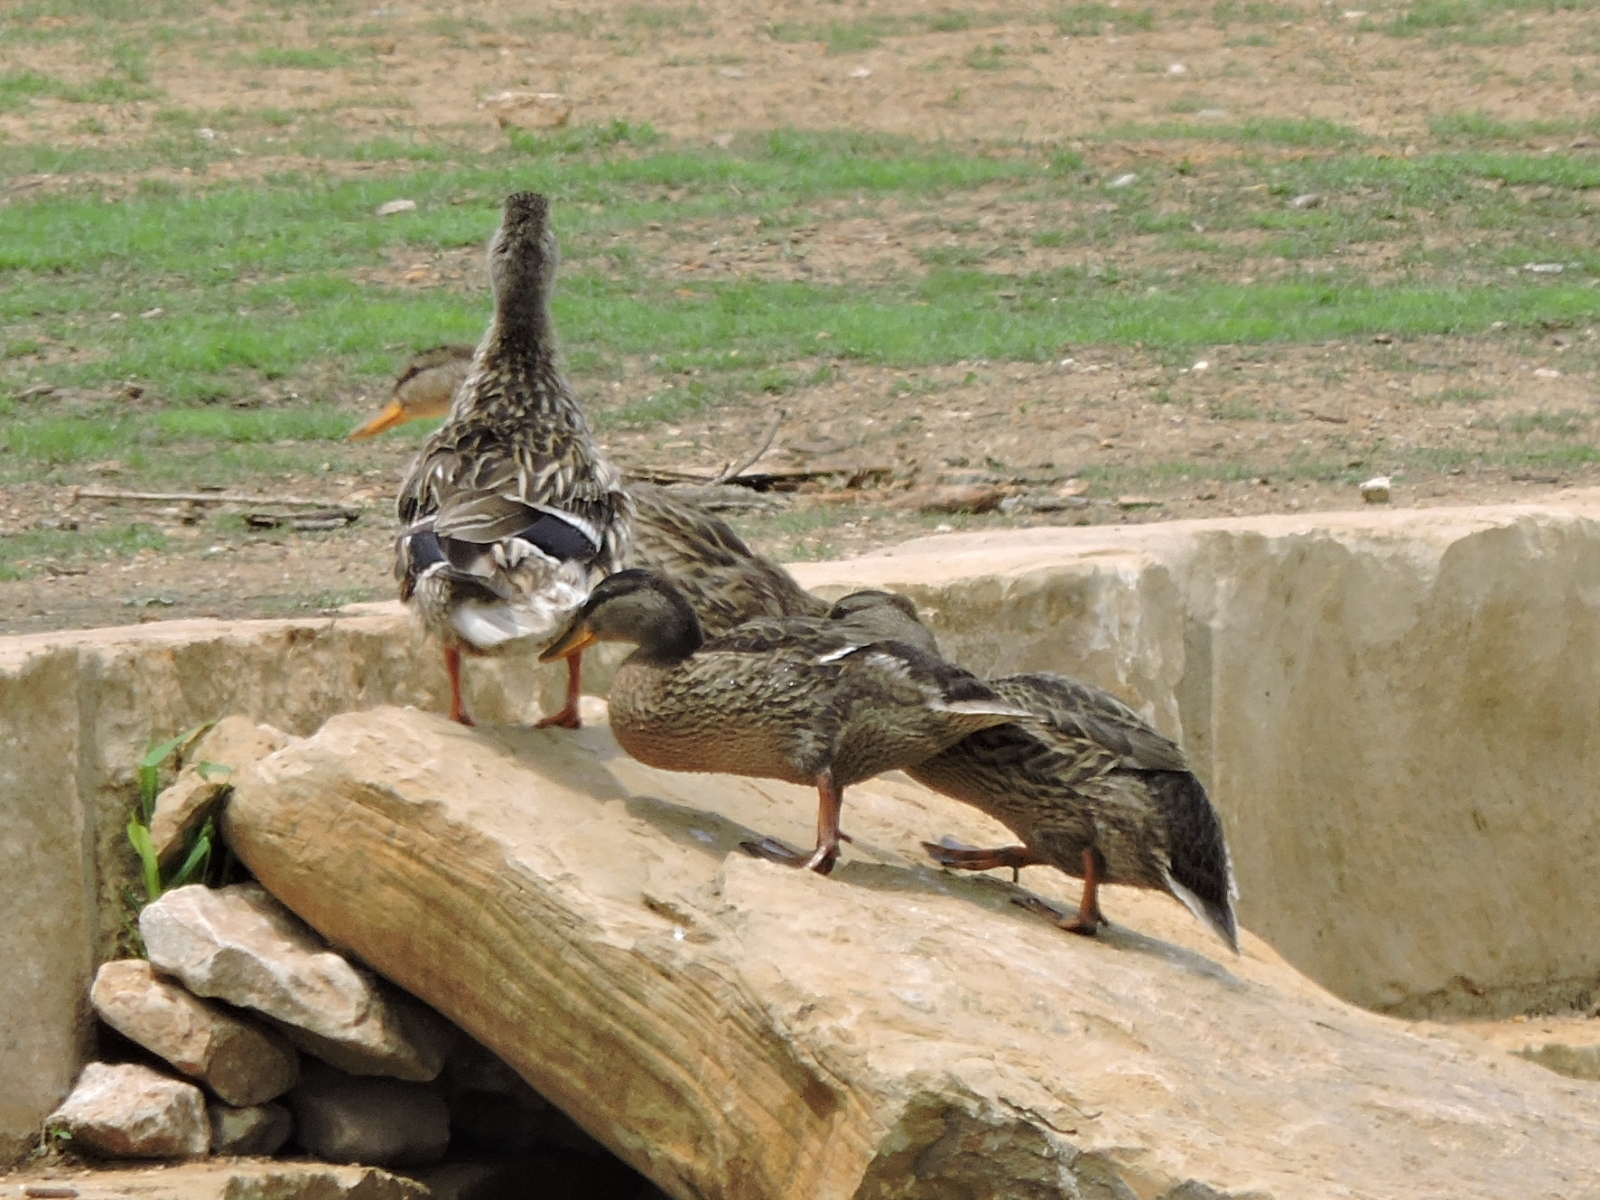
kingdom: Animalia
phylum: Chordata
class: Aves
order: Anseriformes
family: Anatidae
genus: Anas
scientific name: Anas platyrhynchos
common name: Mallard
